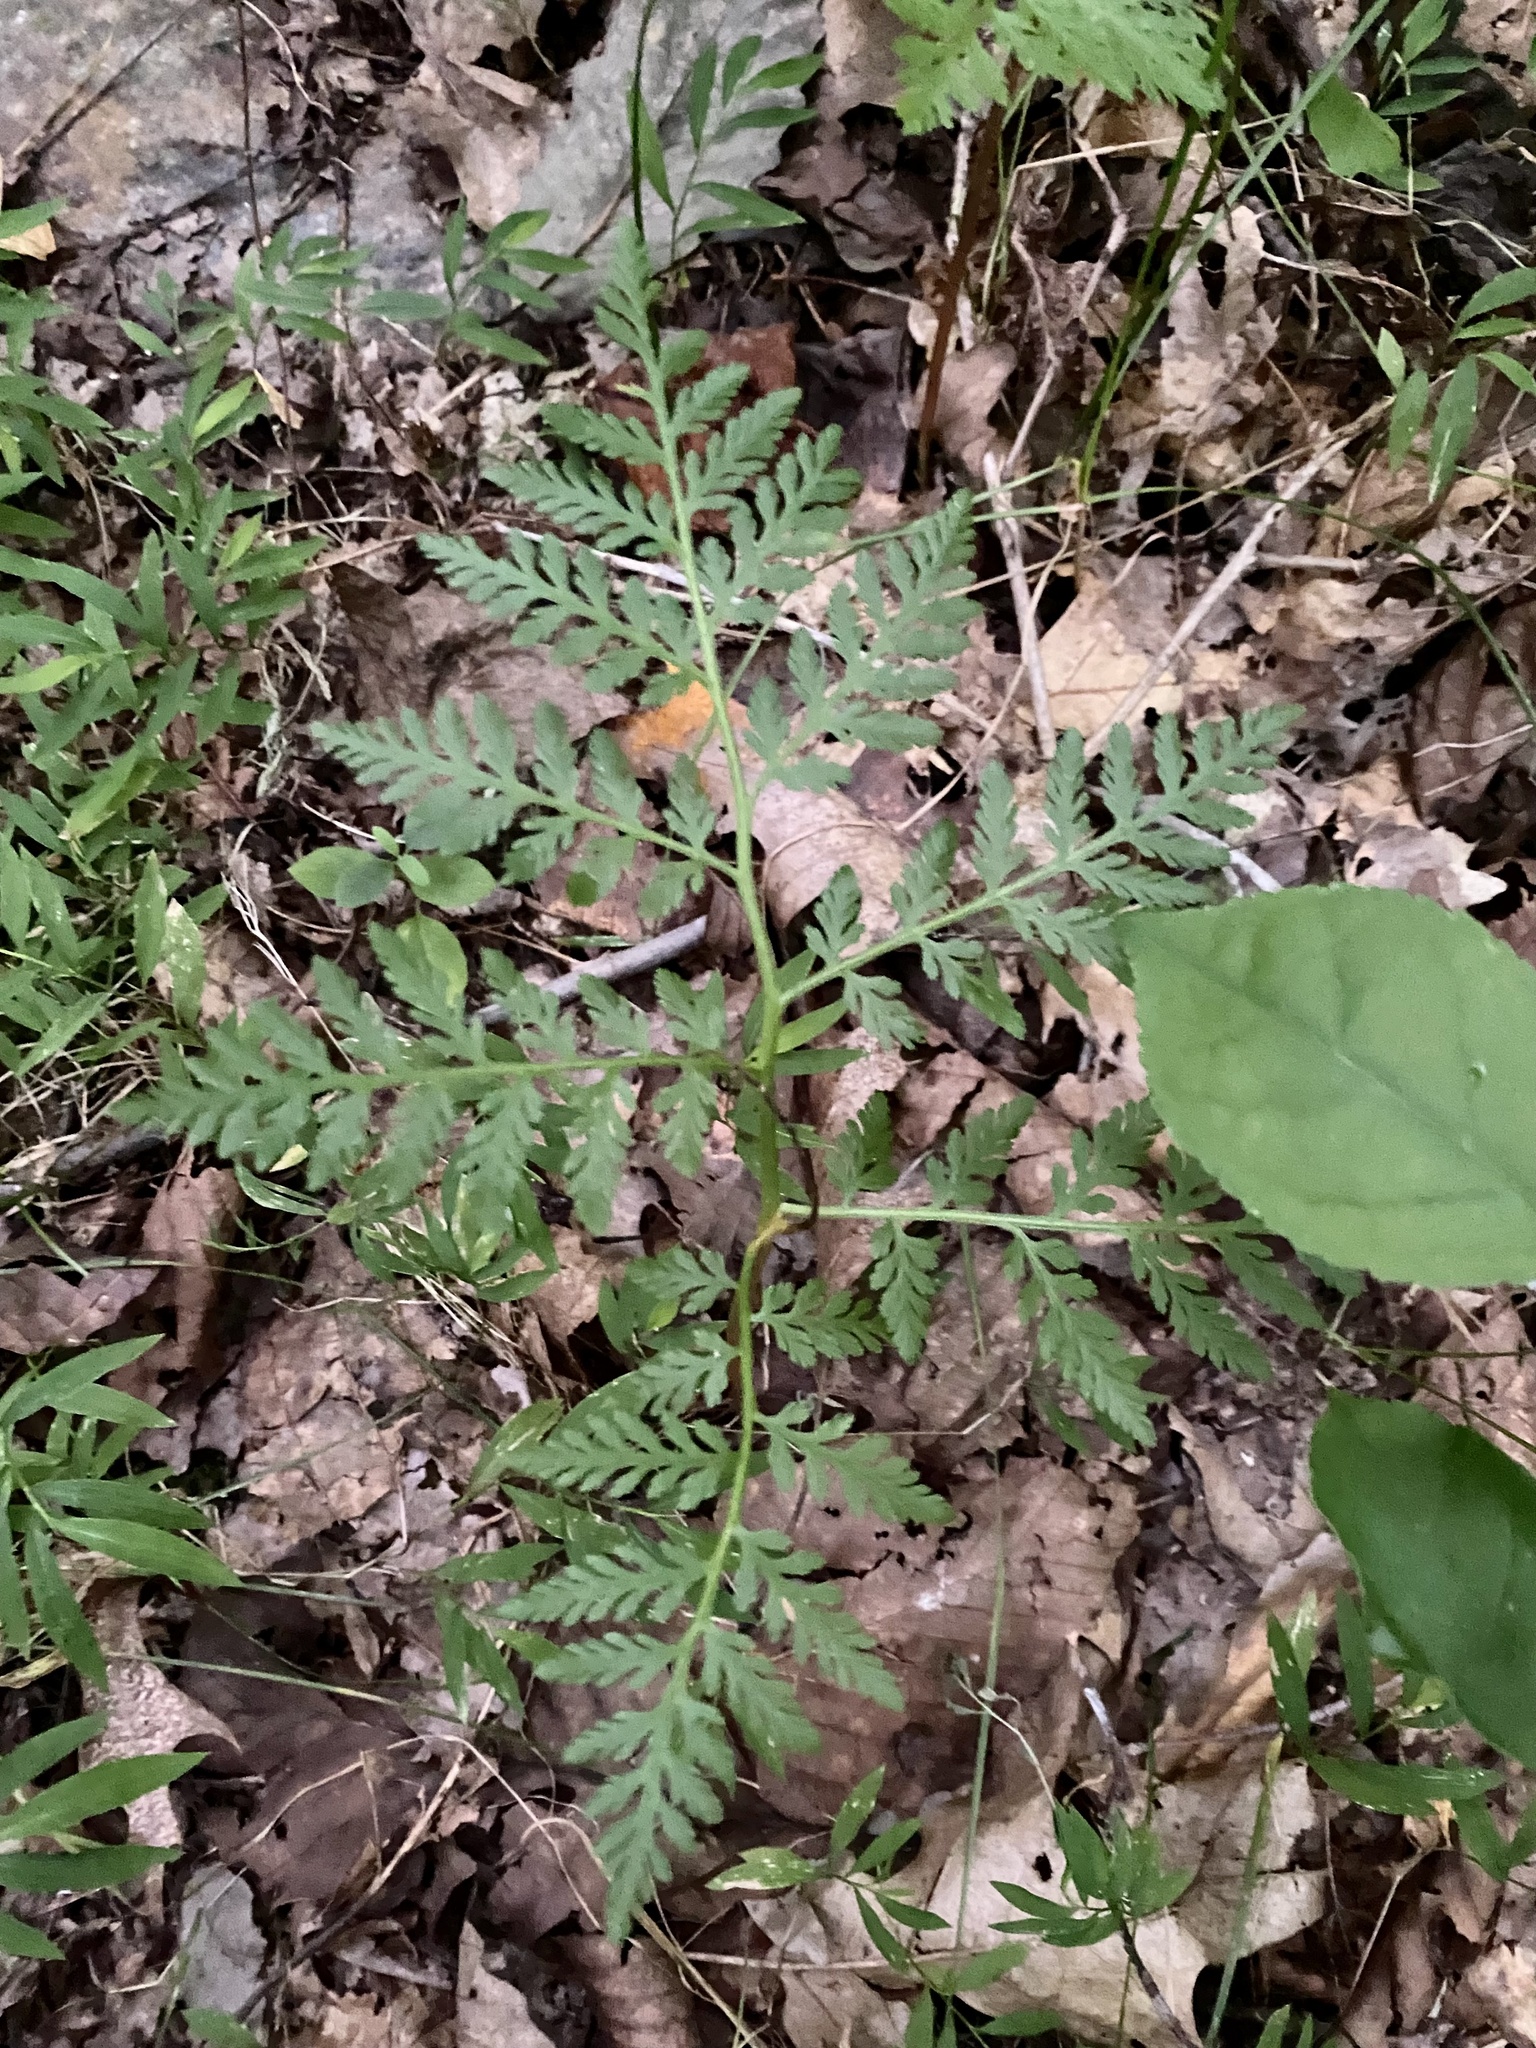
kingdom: Plantae
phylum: Tracheophyta
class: Polypodiopsida
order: Ophioglossales
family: Ophioglossaceae
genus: Botrypus
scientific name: Botrypus virginianus
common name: Common grapefern
